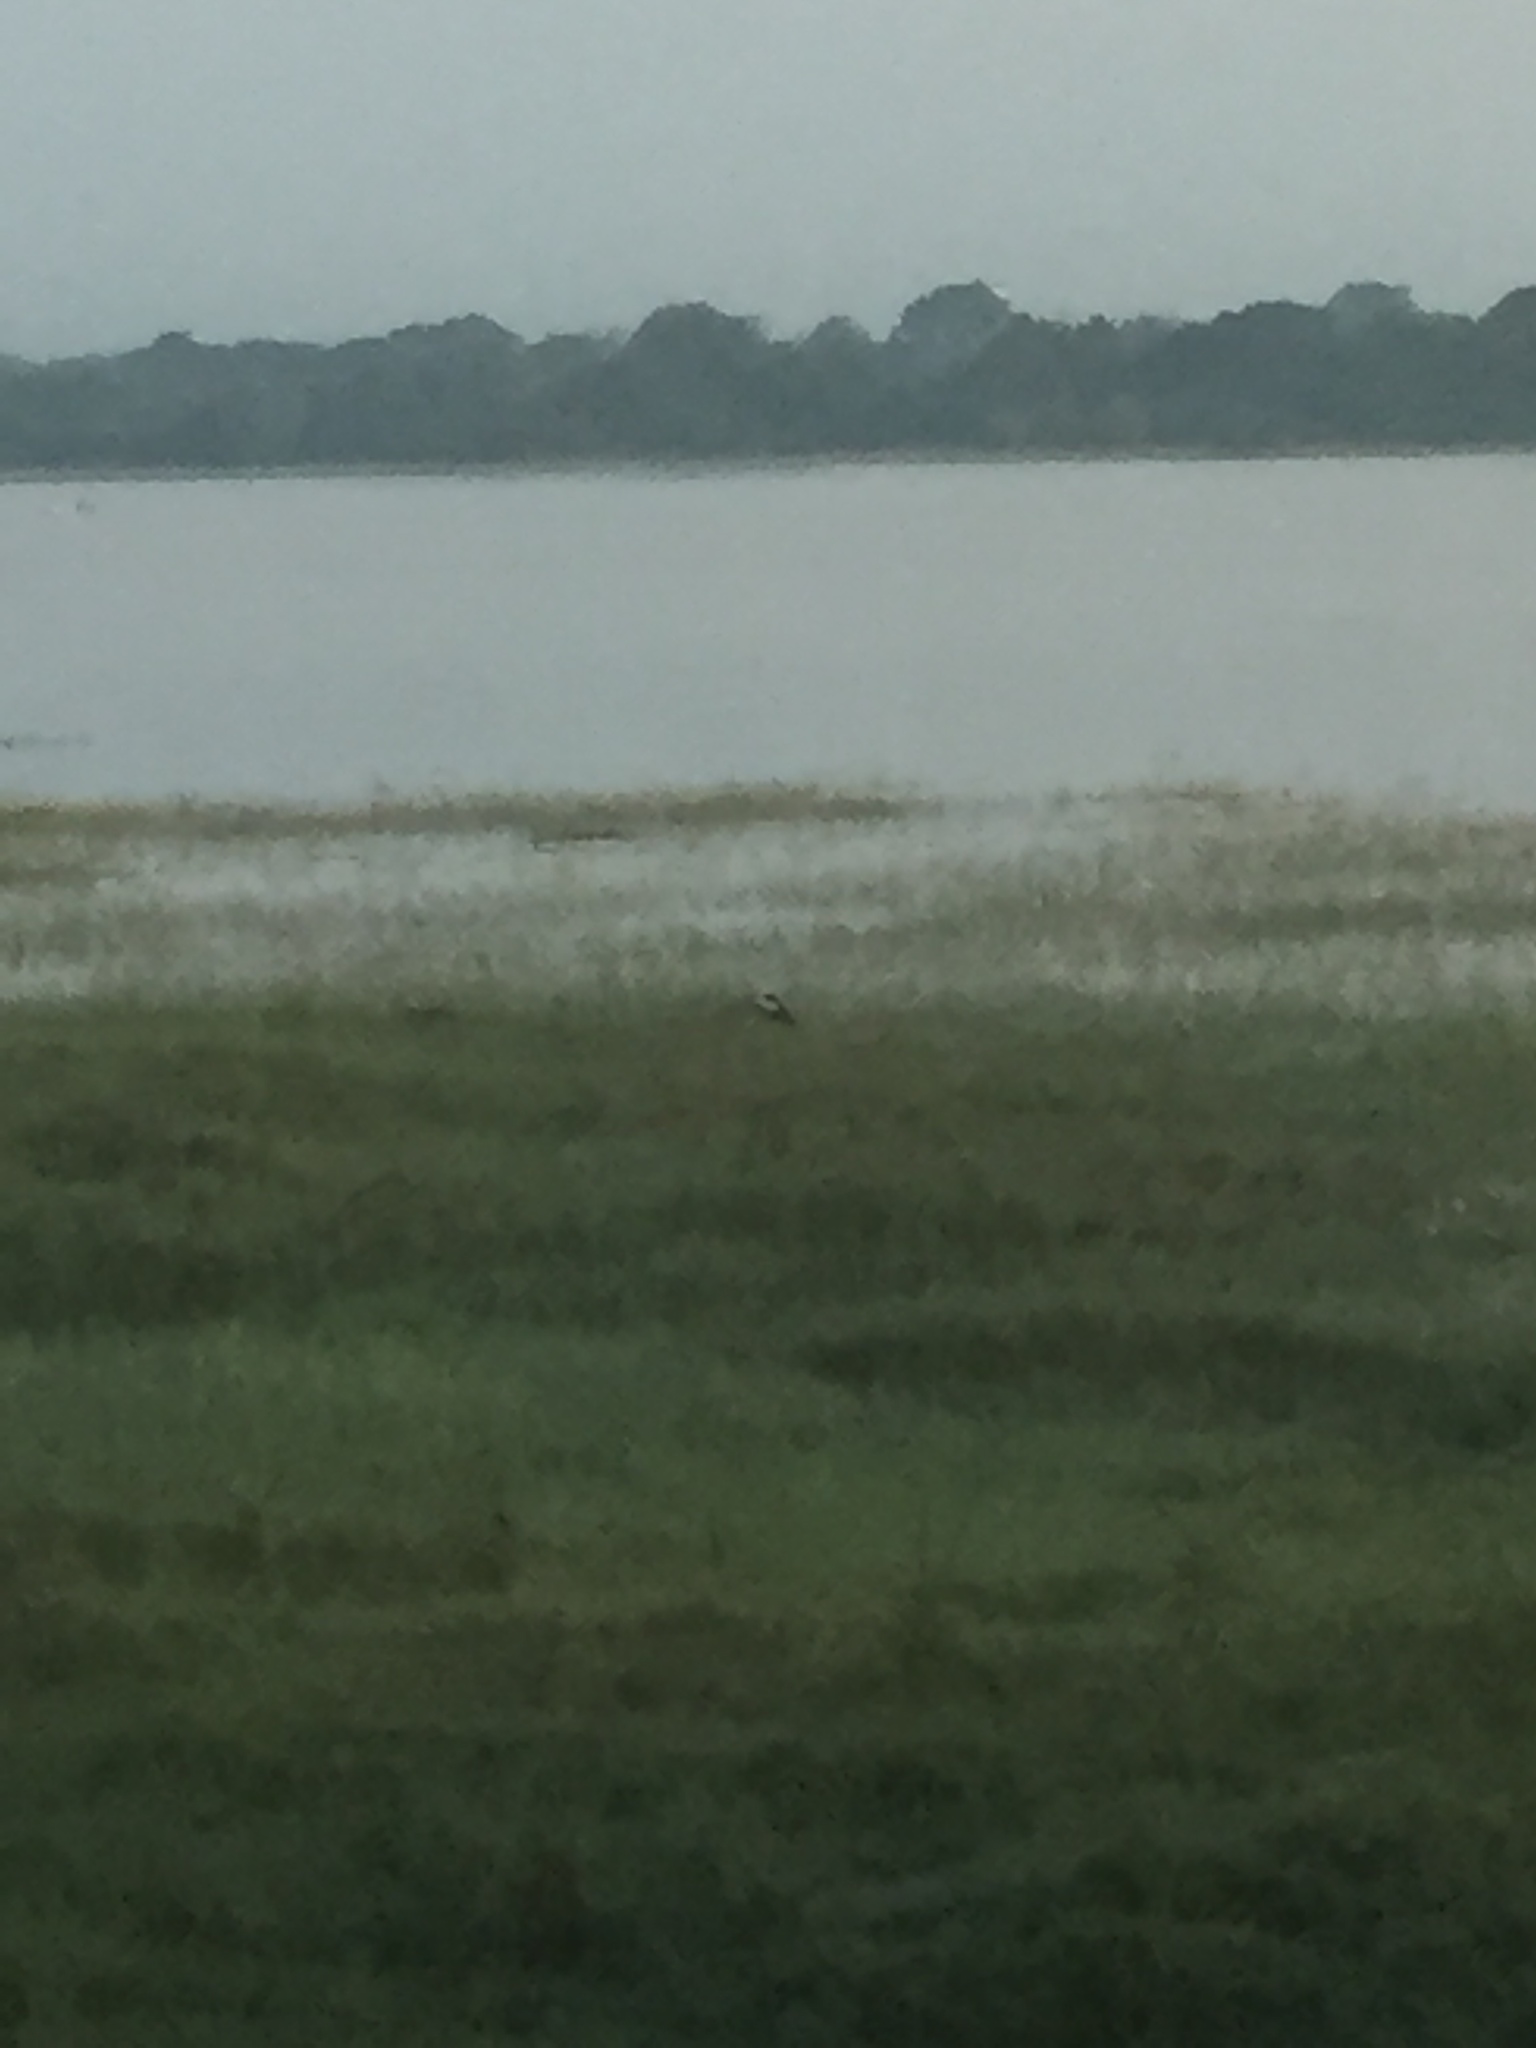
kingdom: Animalia
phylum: Chordata
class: Aves
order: Pelecaniformes
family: Ardeidae
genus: Ardea
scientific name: Ardea cinerea
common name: Grey heron
